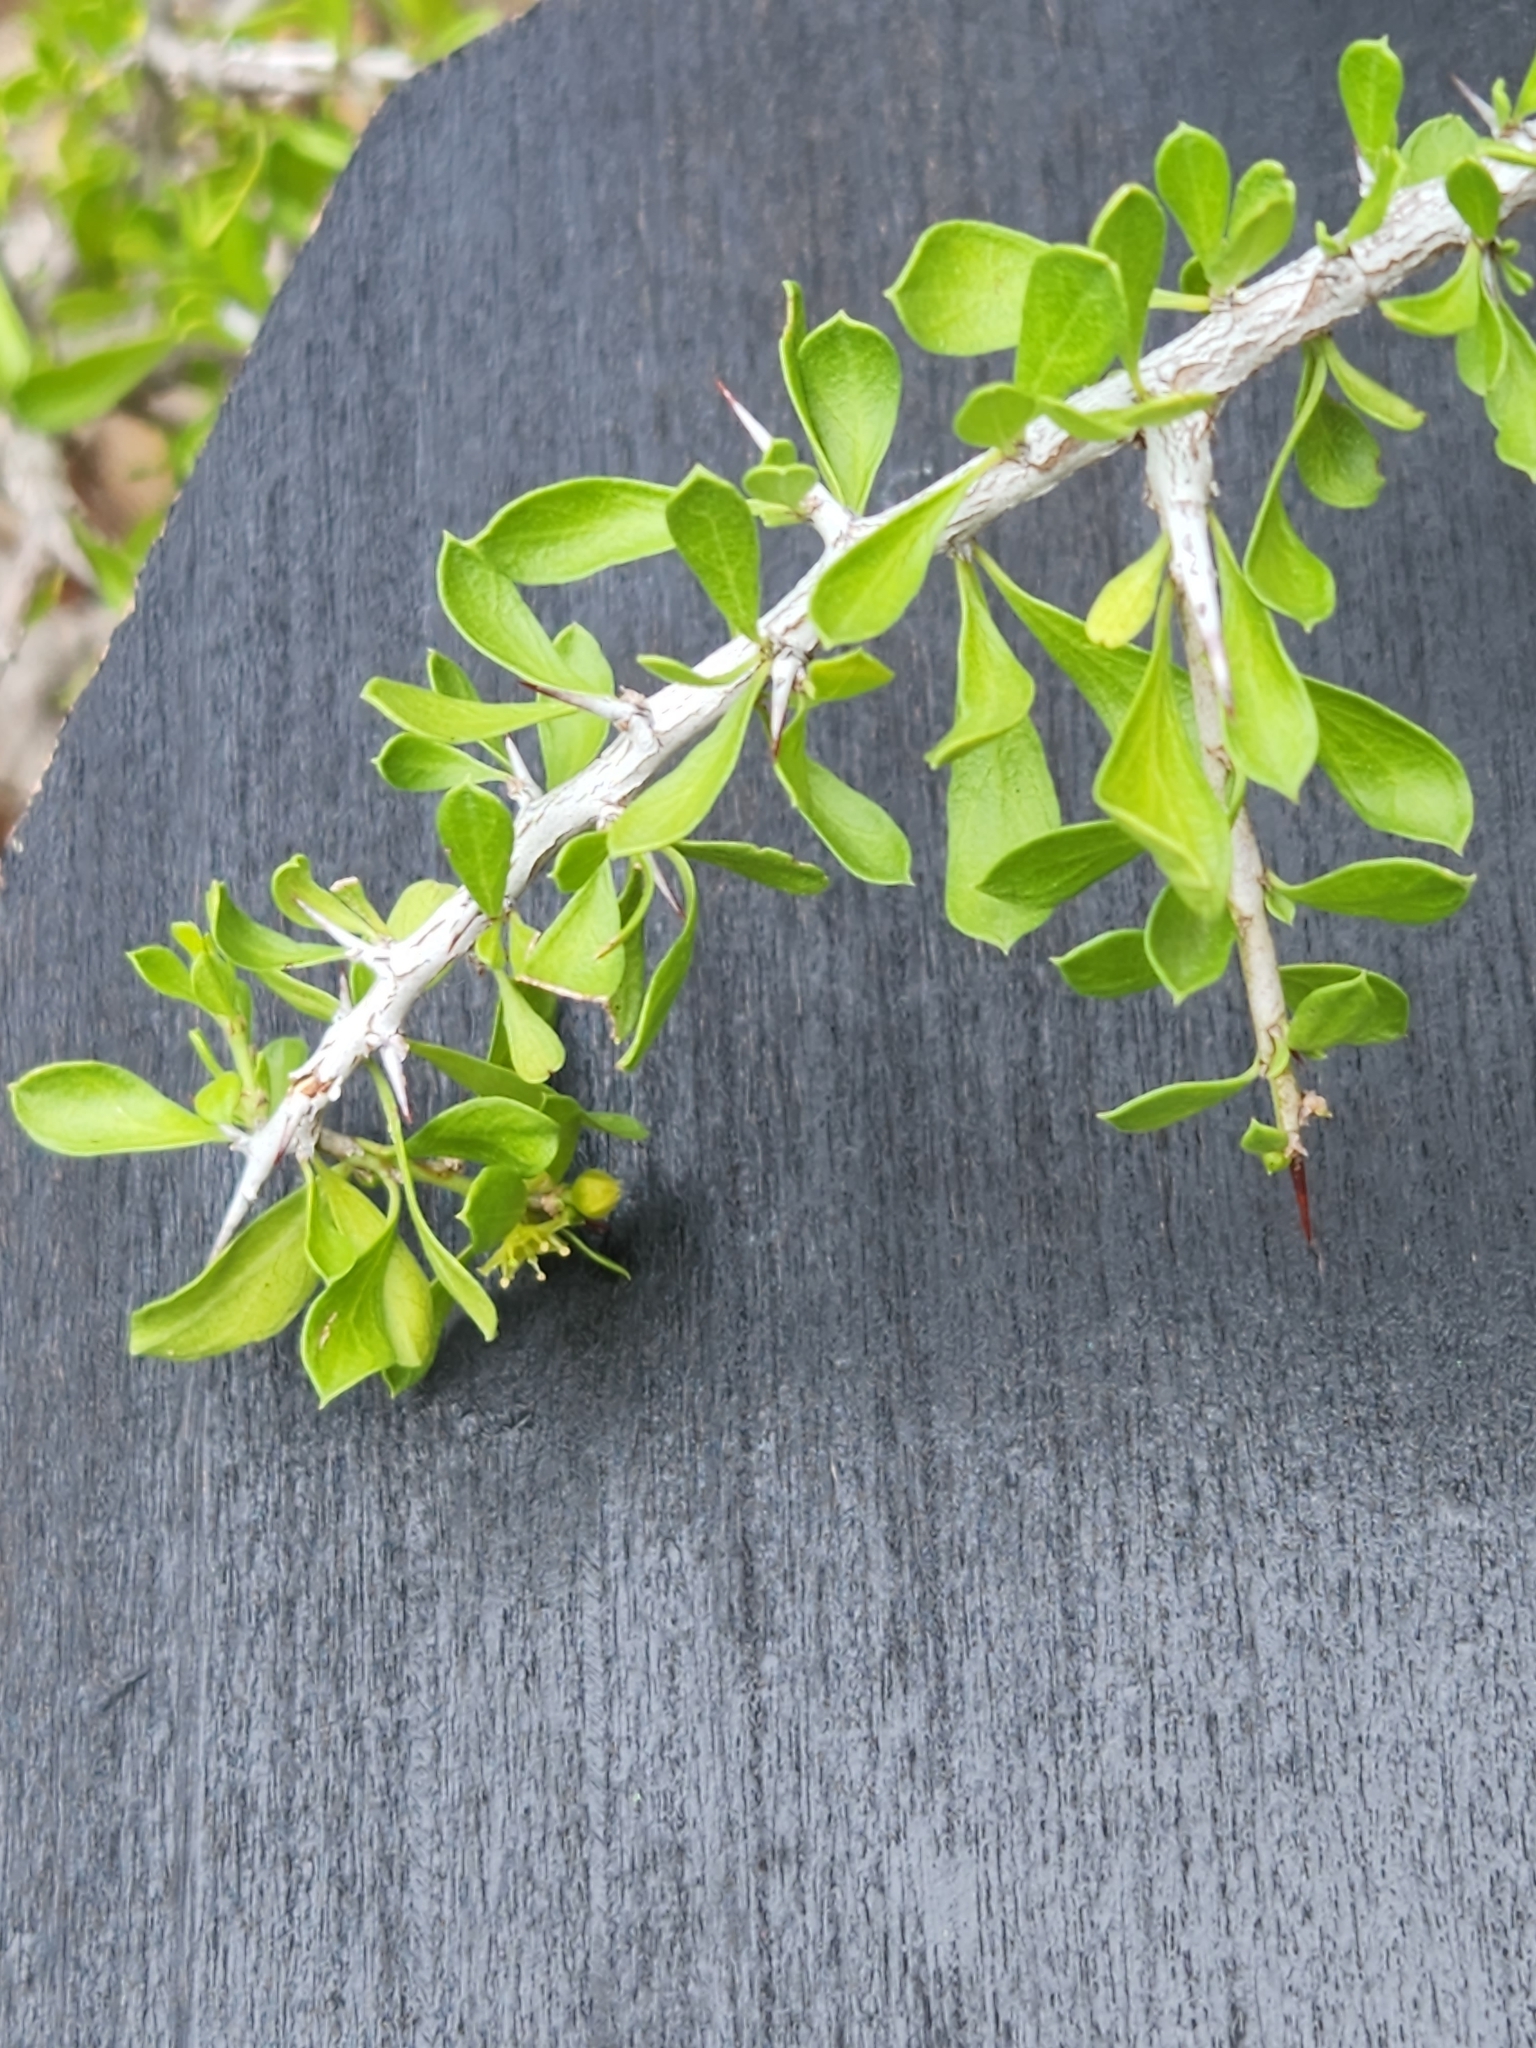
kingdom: Plantae
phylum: Tracheophyta
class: Magnoliopsida
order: Rosales
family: Rhamnaceae
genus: Condalia
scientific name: Condalia viridis
